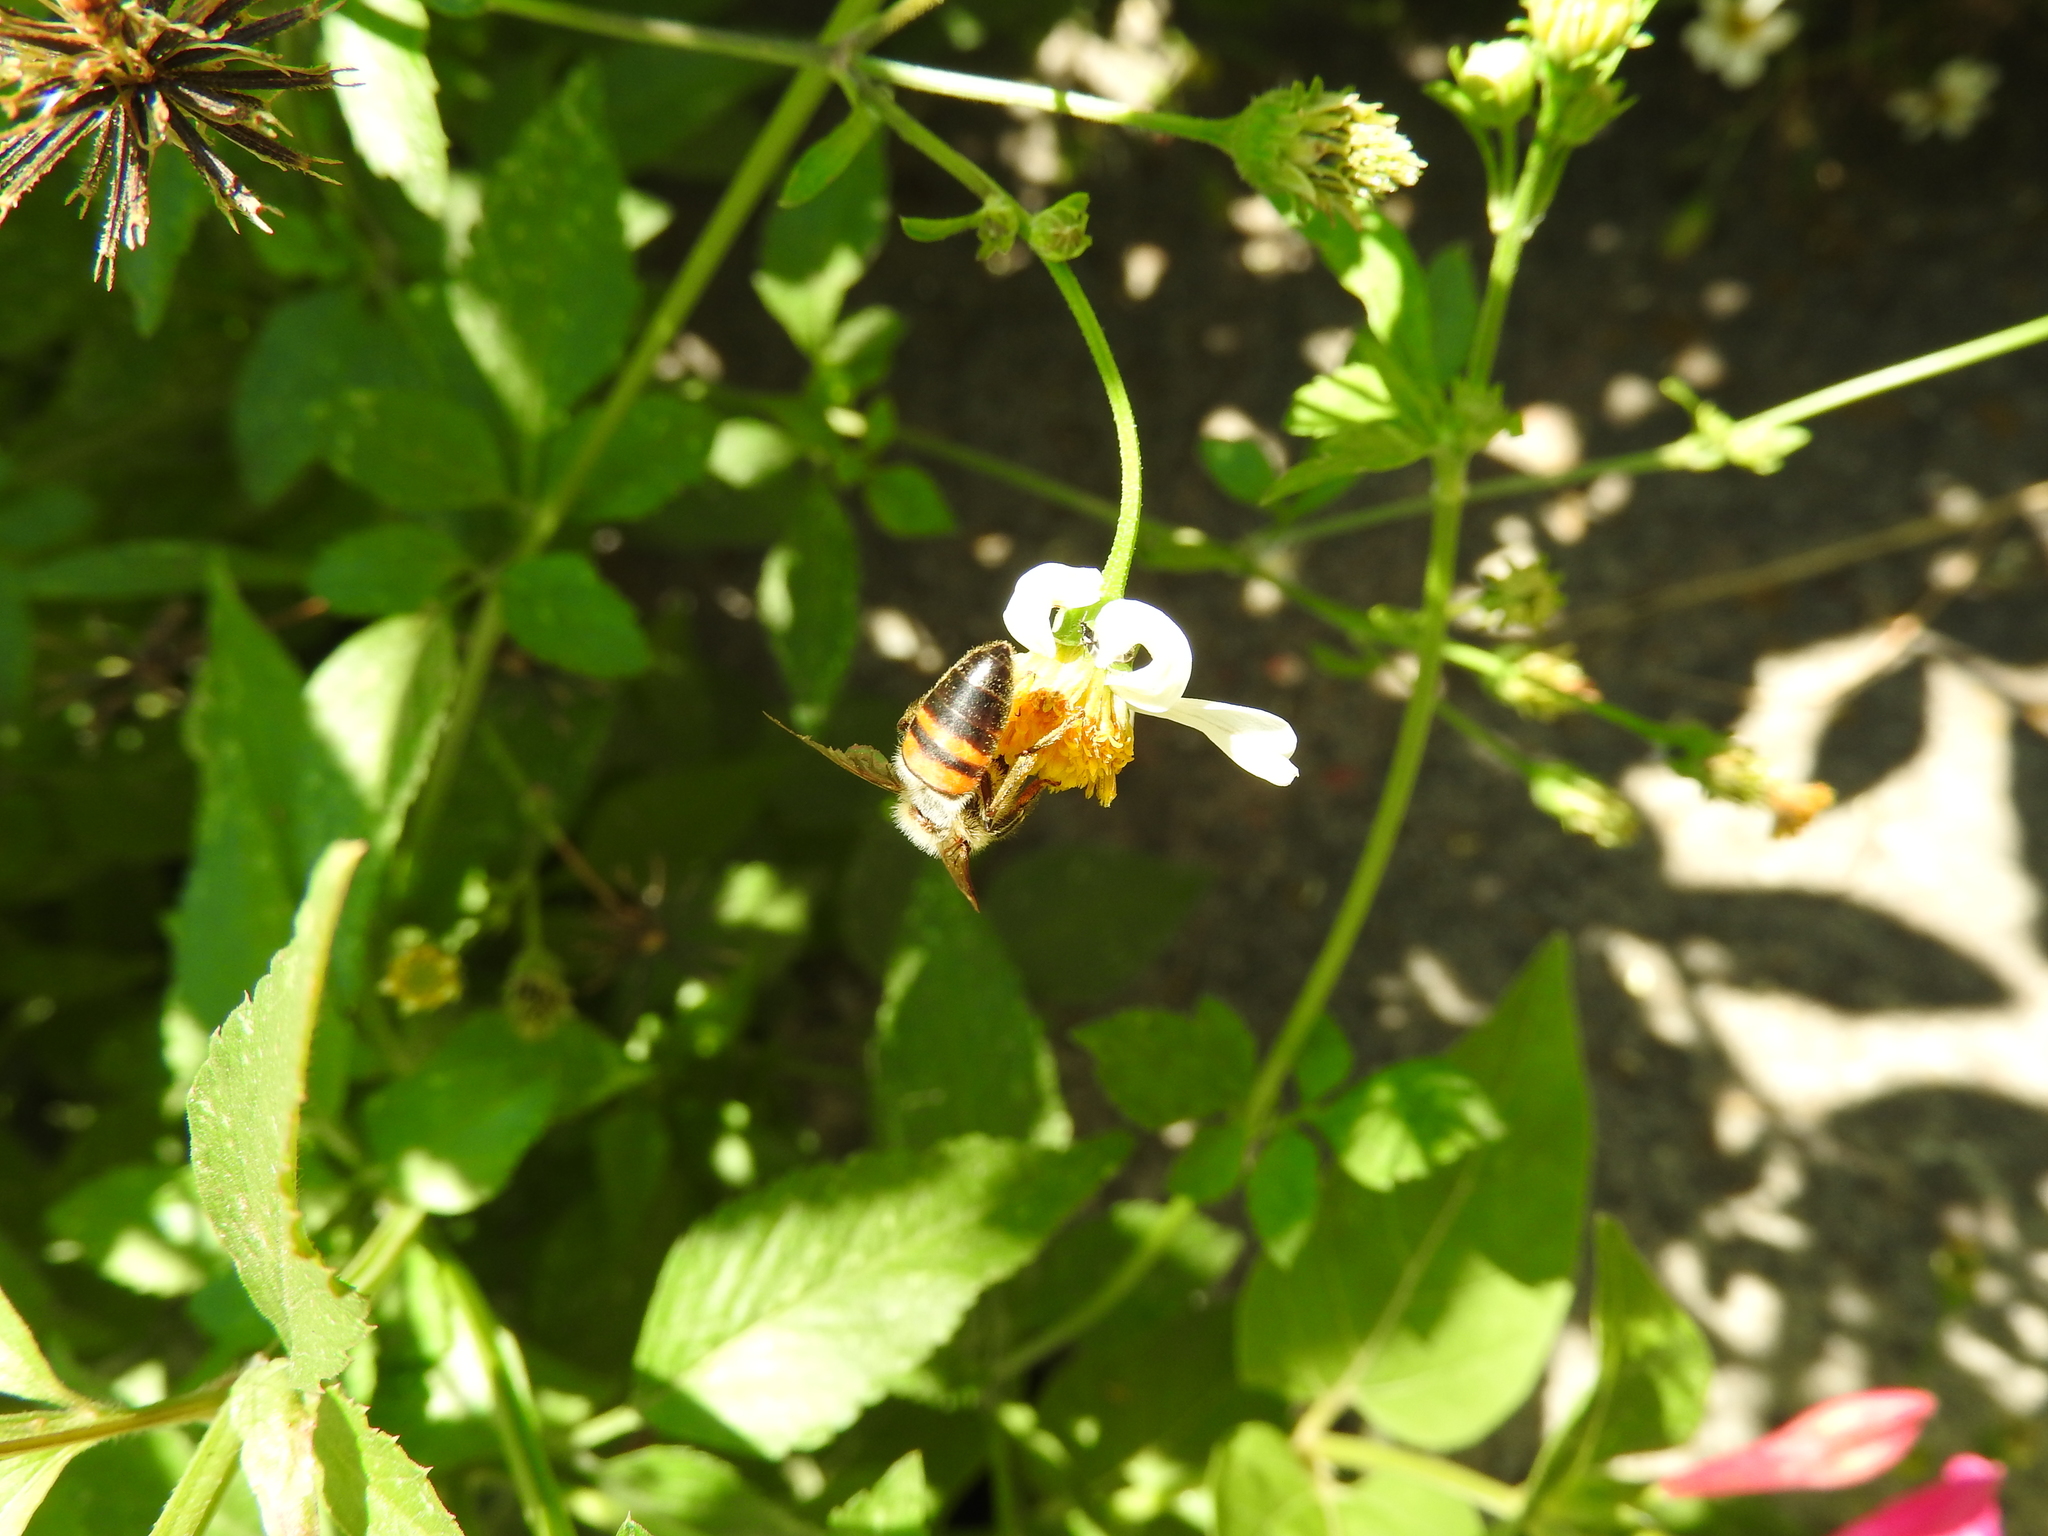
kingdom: Animalia
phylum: Arthropoda
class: Insecta
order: Hymenoptera
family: Apidae
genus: Apis
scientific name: Apis mellifera
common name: Honey bee
